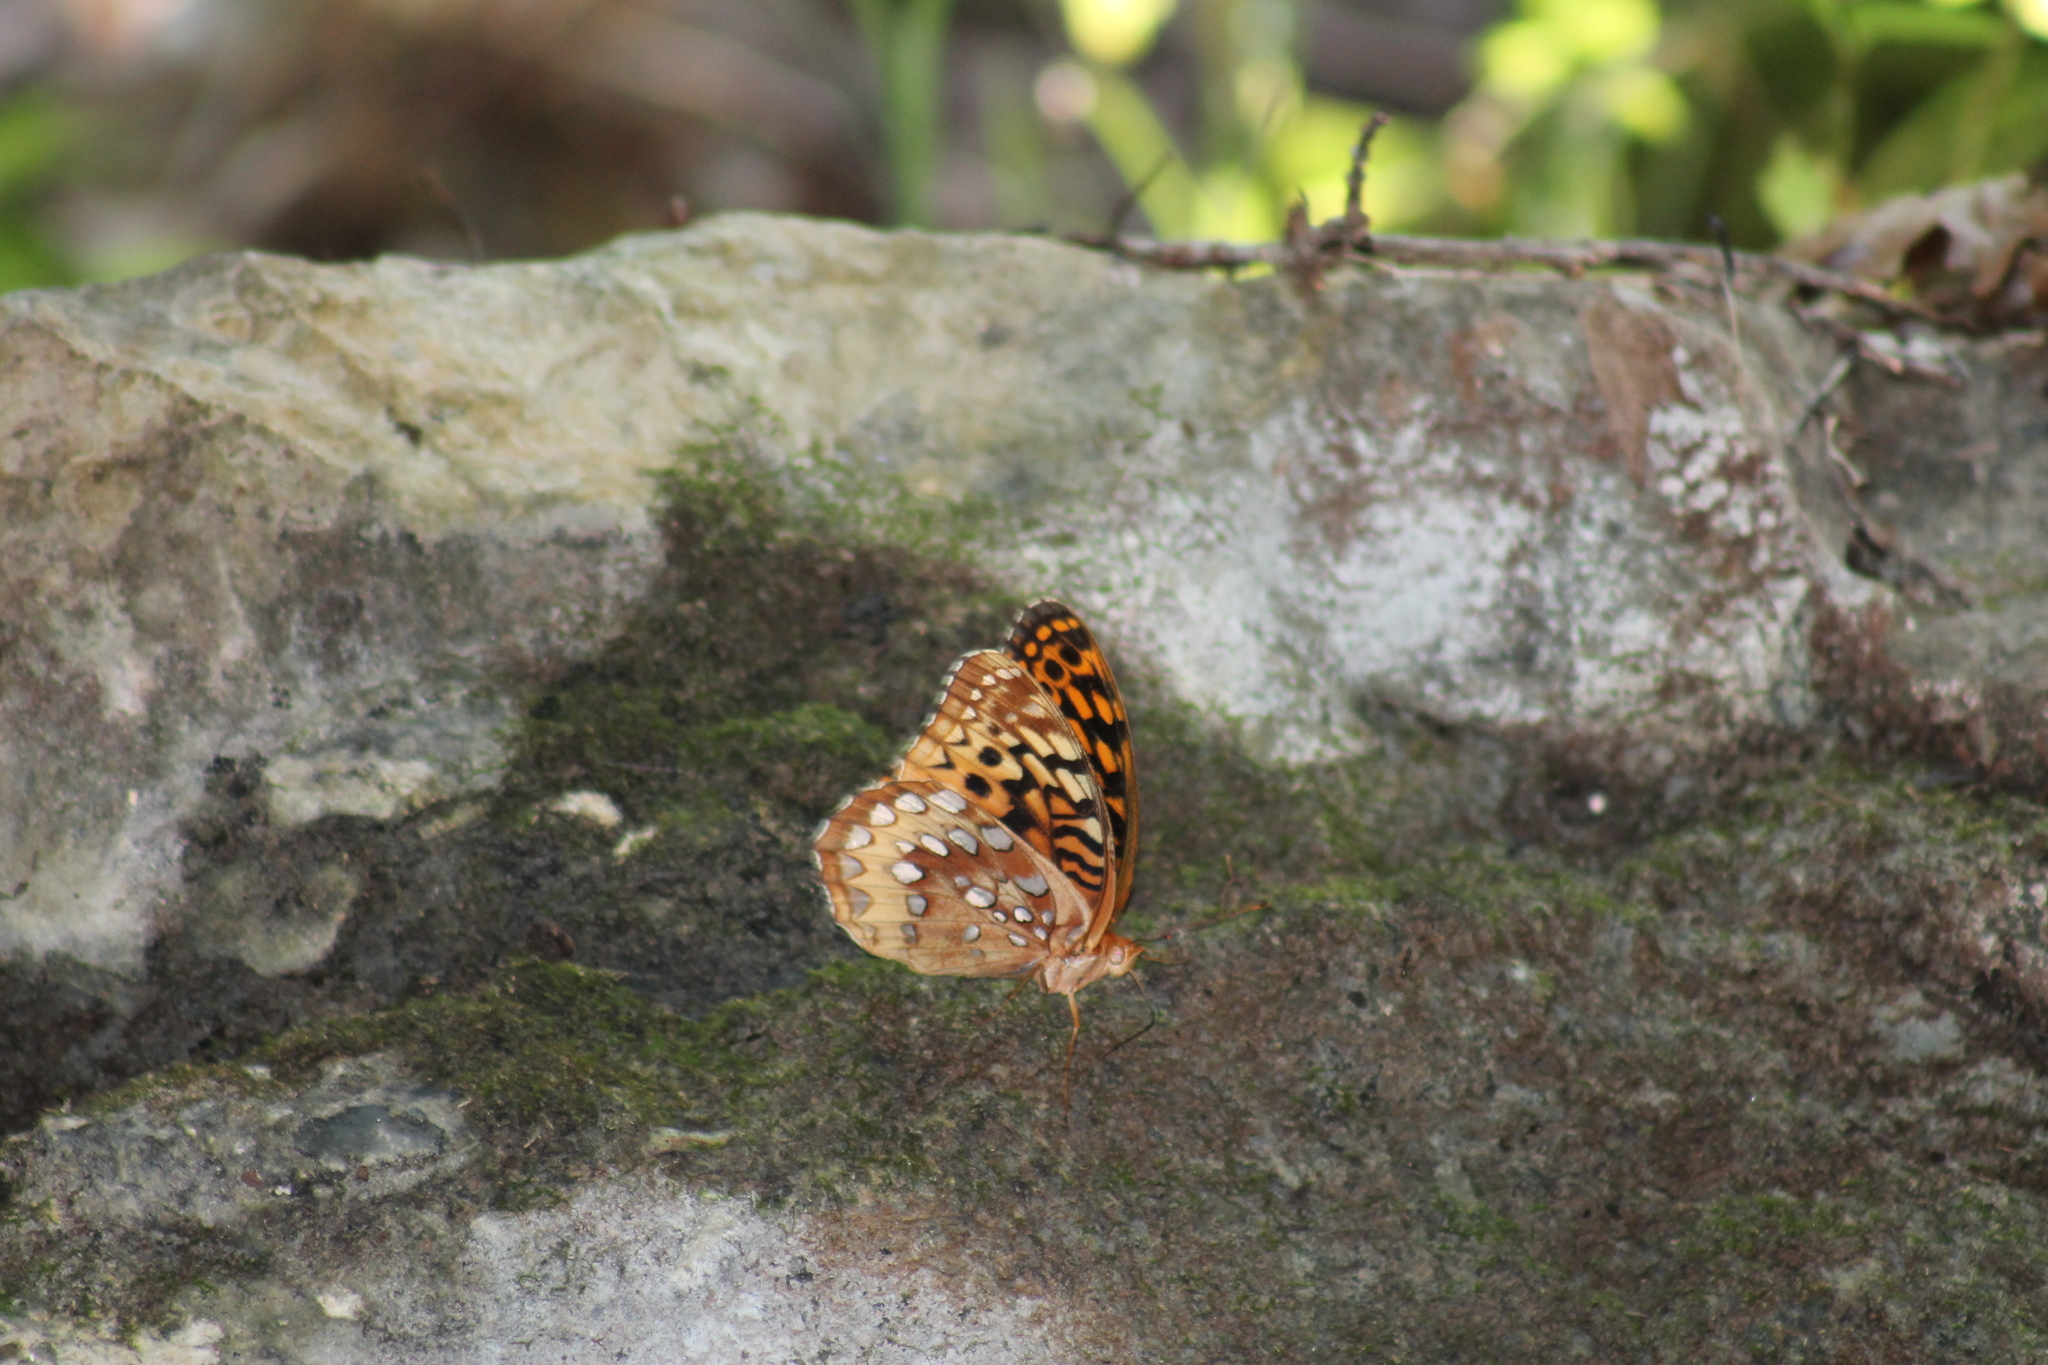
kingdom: Animalia
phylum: Arthropoda
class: Insecta
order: Lepidoptera
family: Nymphalidae
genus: Speyeria
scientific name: Speyeria cybele
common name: Great spangled fritillary
